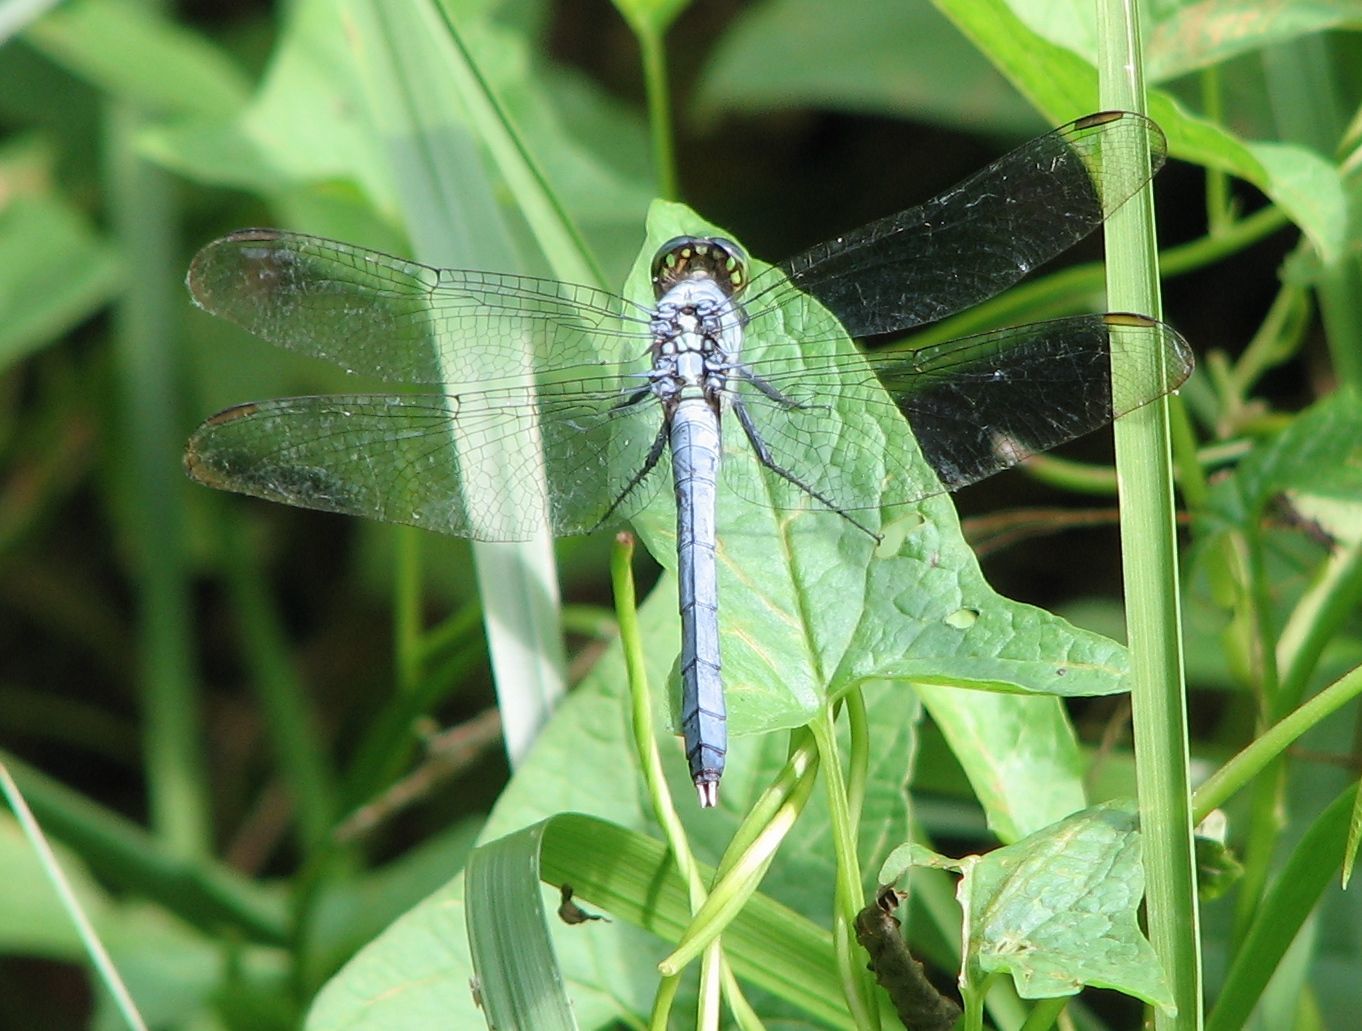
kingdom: Animalia
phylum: Arthropoda
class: Insecta
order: Odonata
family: Libellulidae
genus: Erythemis
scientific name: Erythemis simplicicollis
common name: Eastern pondhawk
